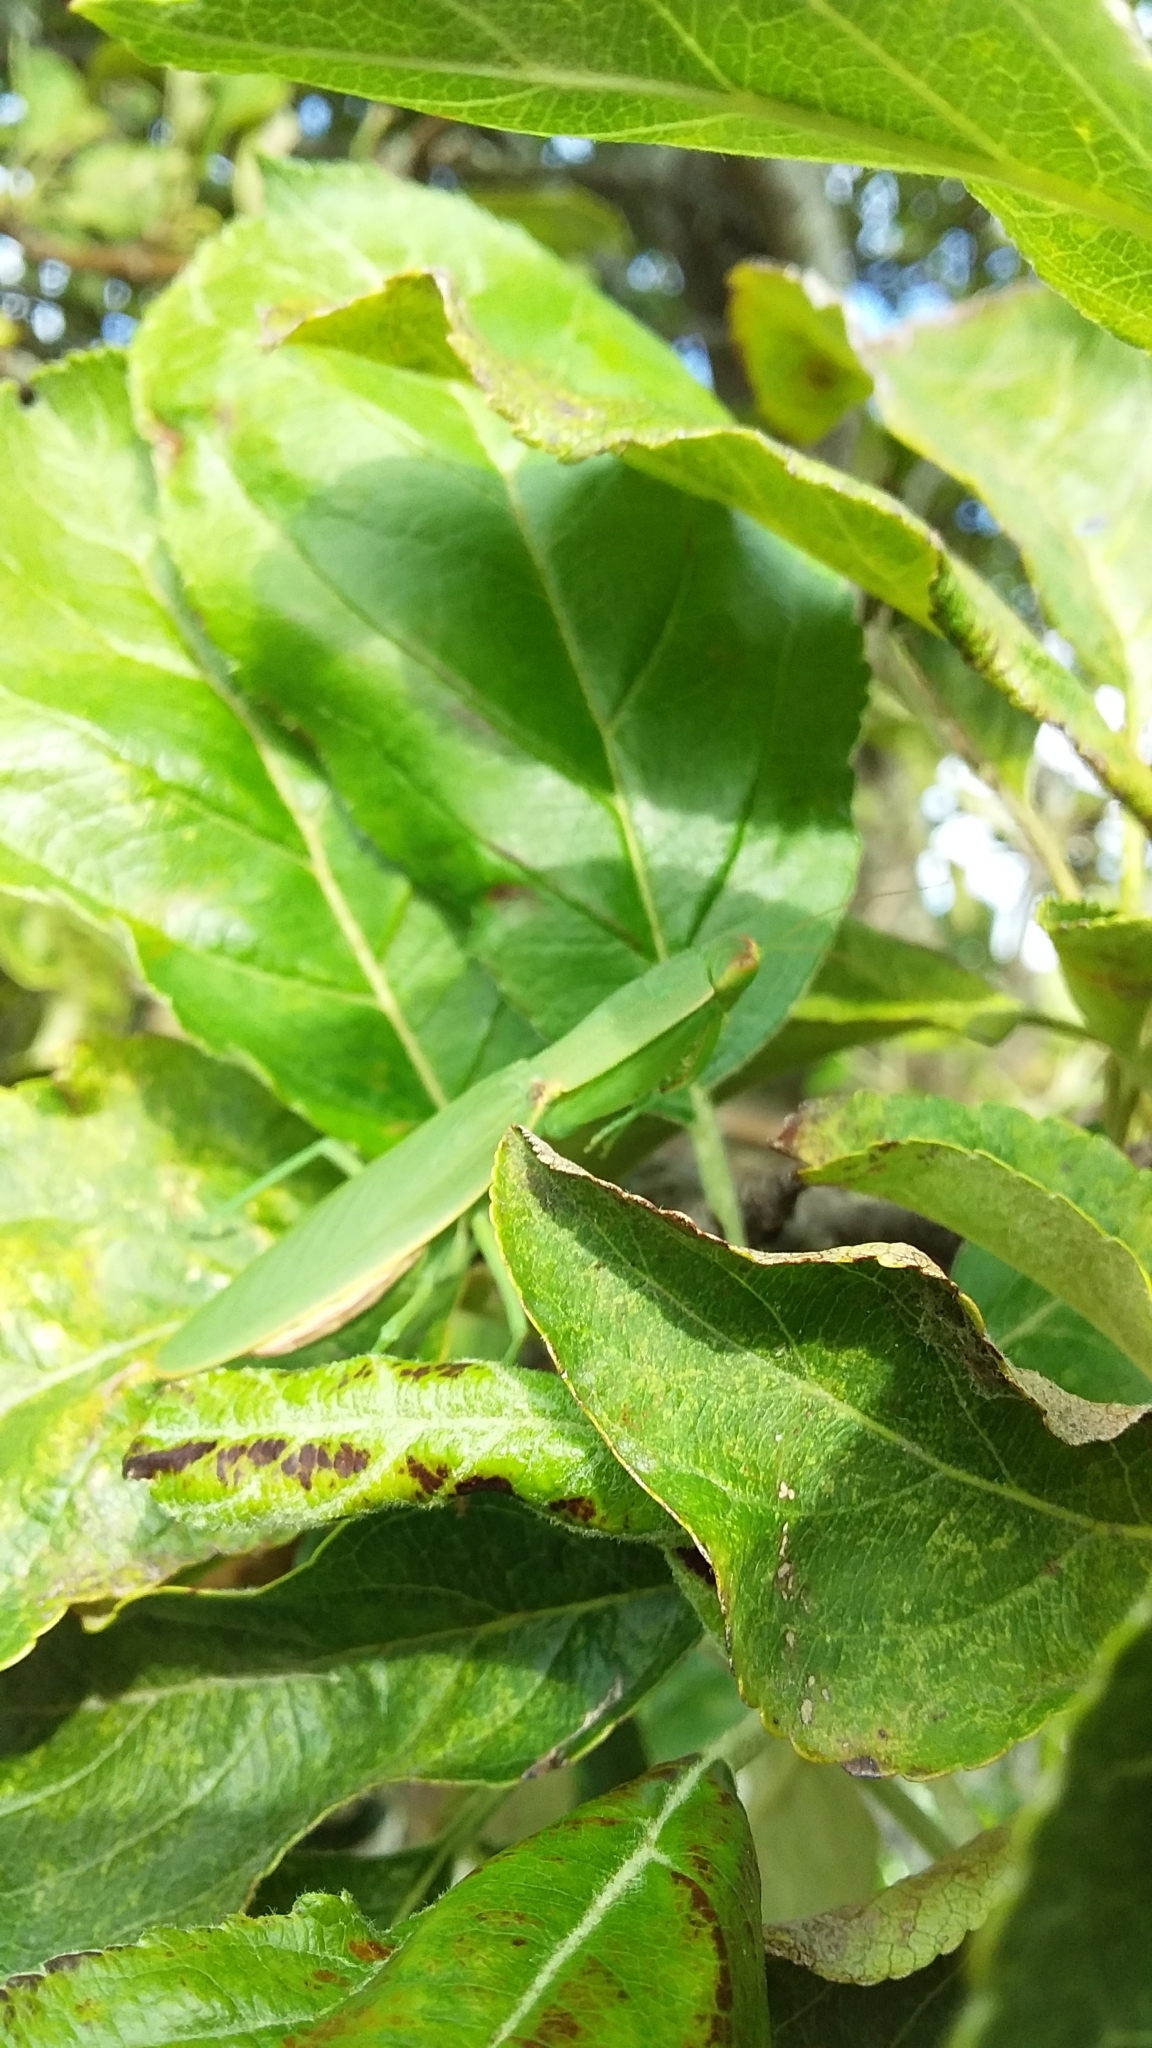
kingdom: Animalia
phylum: Arthropoda
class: Insecta
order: Mantodea
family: Mantidae
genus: Orthodera
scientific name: Orthodera novaezealandiae
